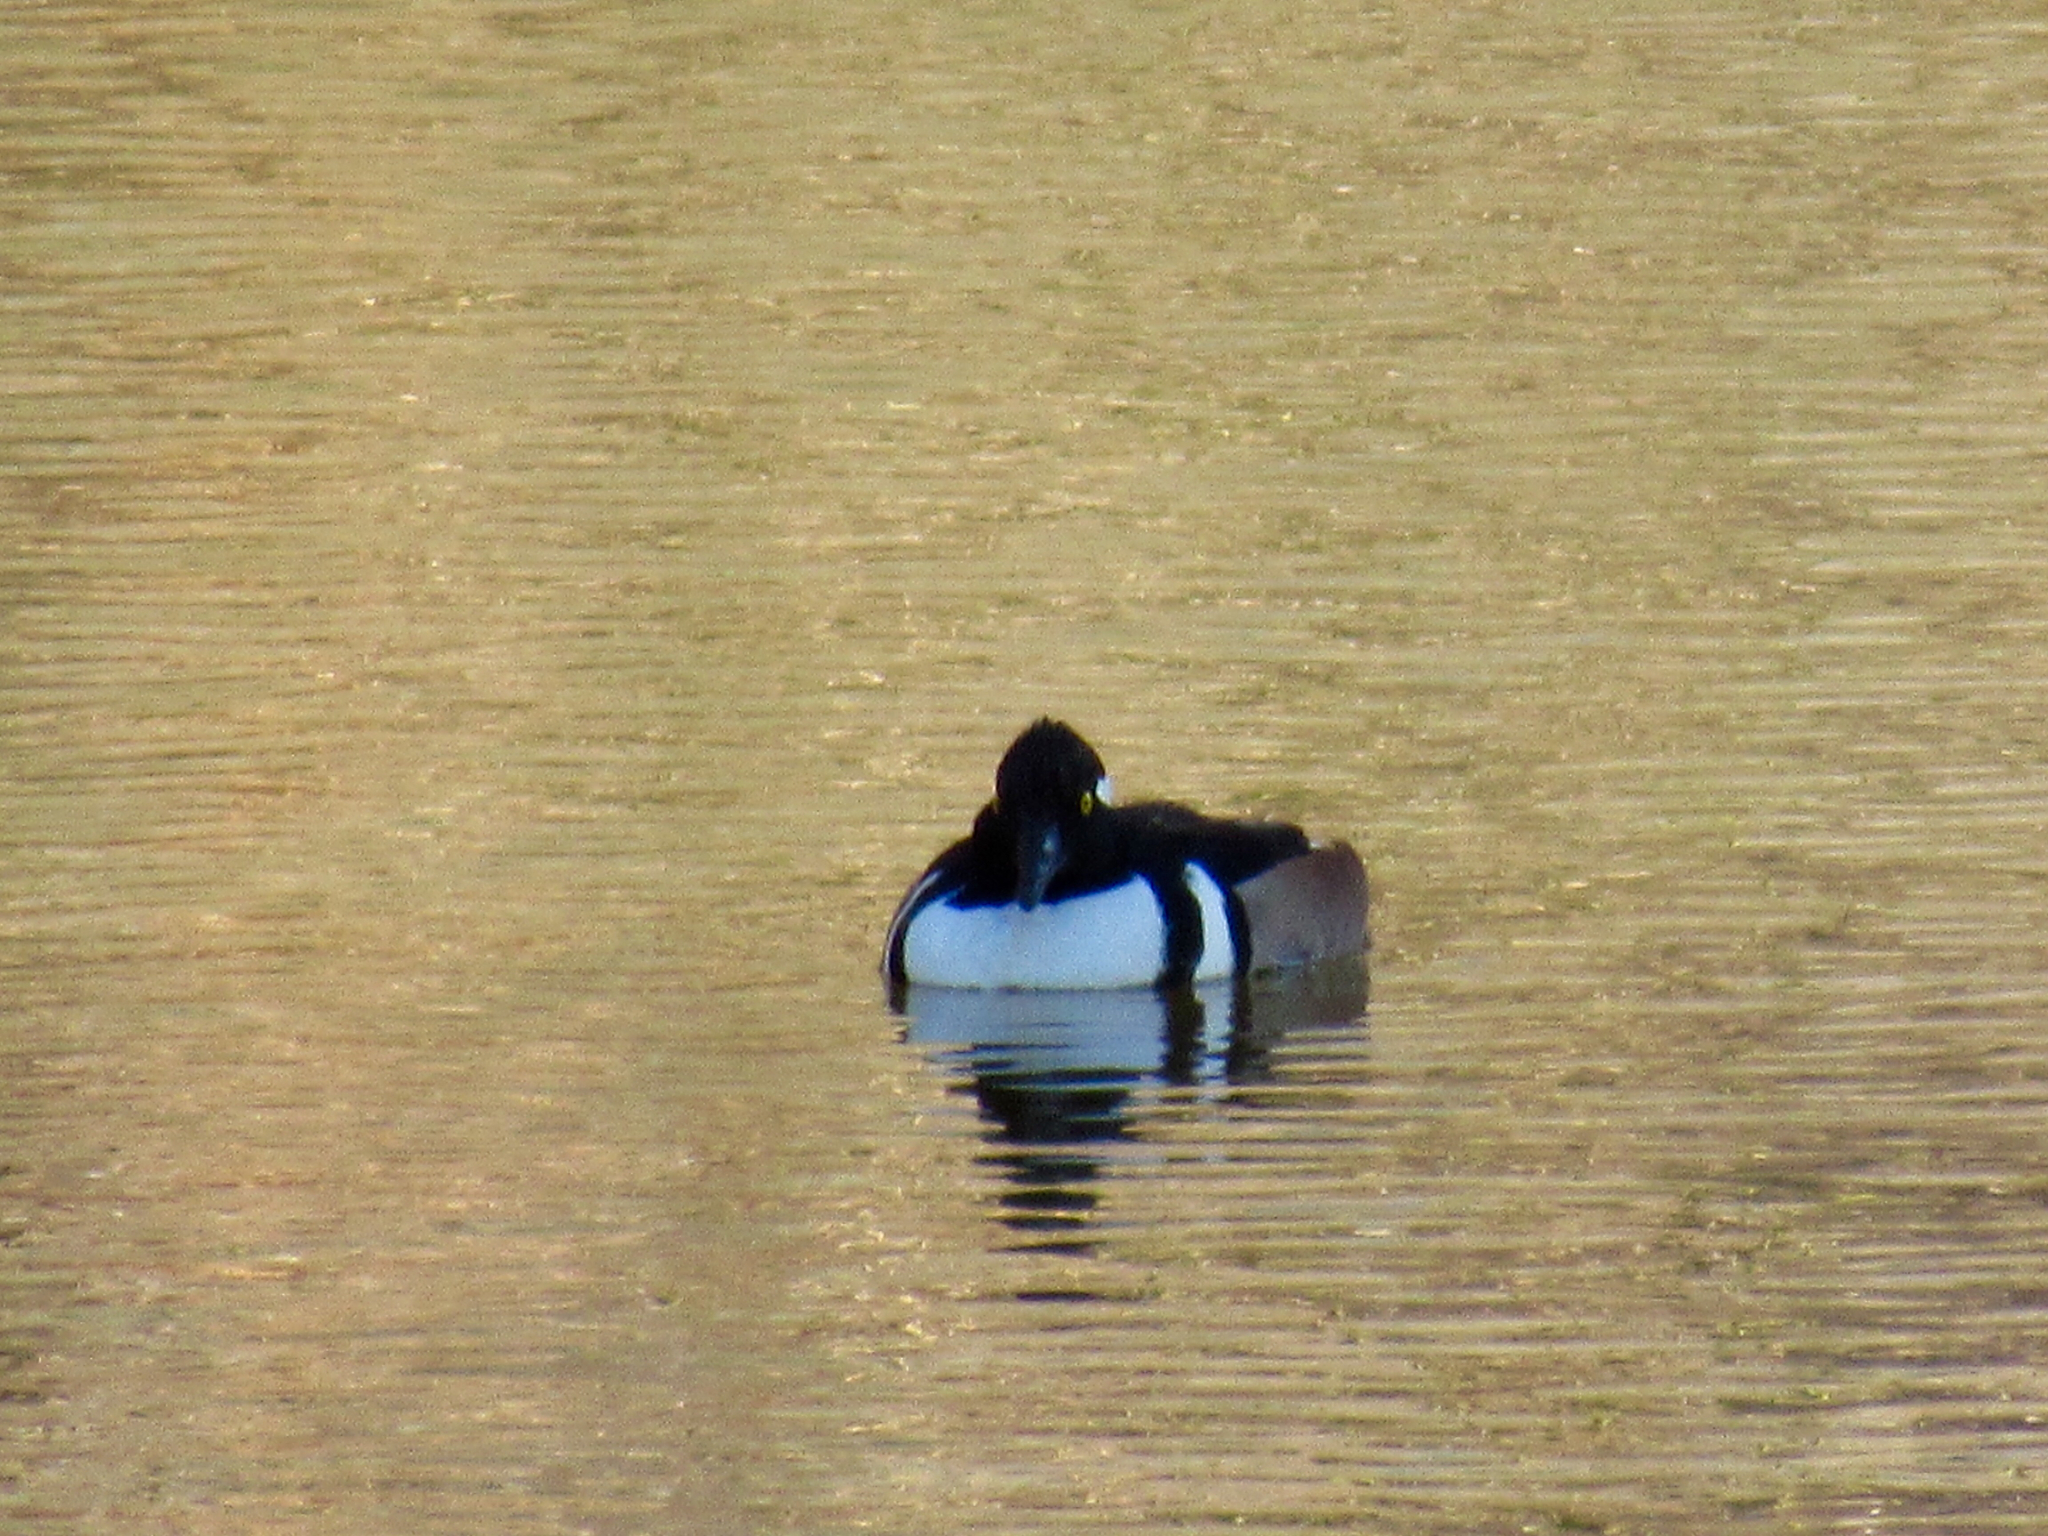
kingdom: Animalia
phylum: Chordata
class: Aves
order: Anseriformes
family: Anatidae
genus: Lophodytes
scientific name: Lophodytes cucullatus
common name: Hooded merganser
